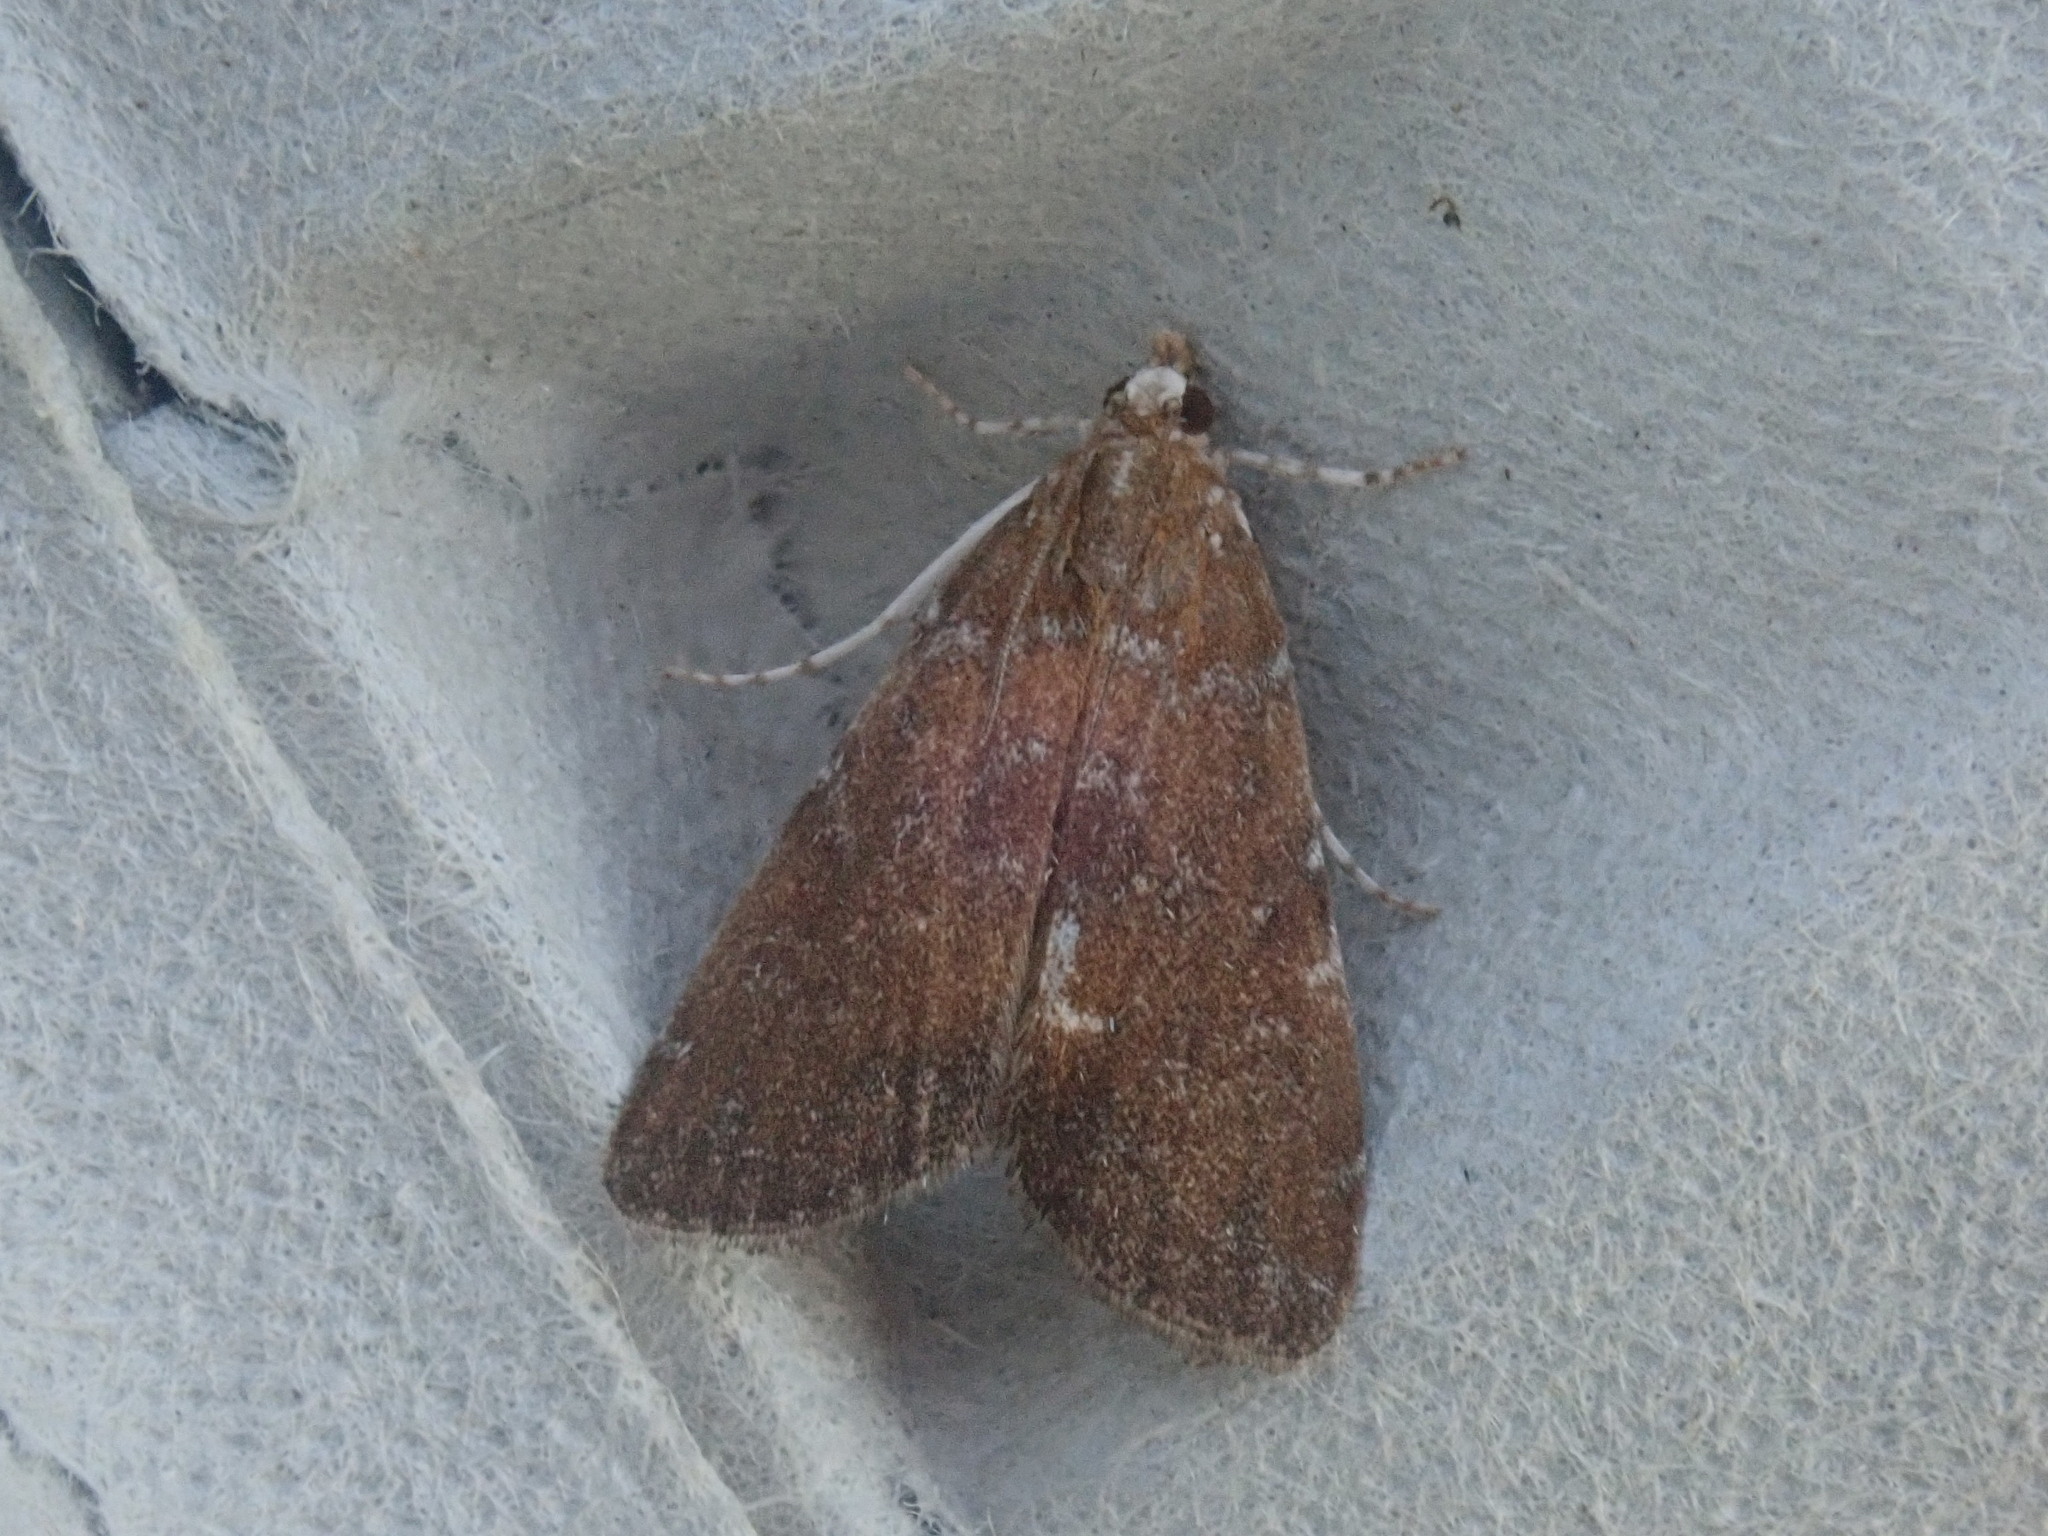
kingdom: Animalia
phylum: Arthropoda
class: Insecta
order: Lepidoptera
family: Crambidae
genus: Elophila
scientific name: Elophila gyralis
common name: Waterlily borer moth
